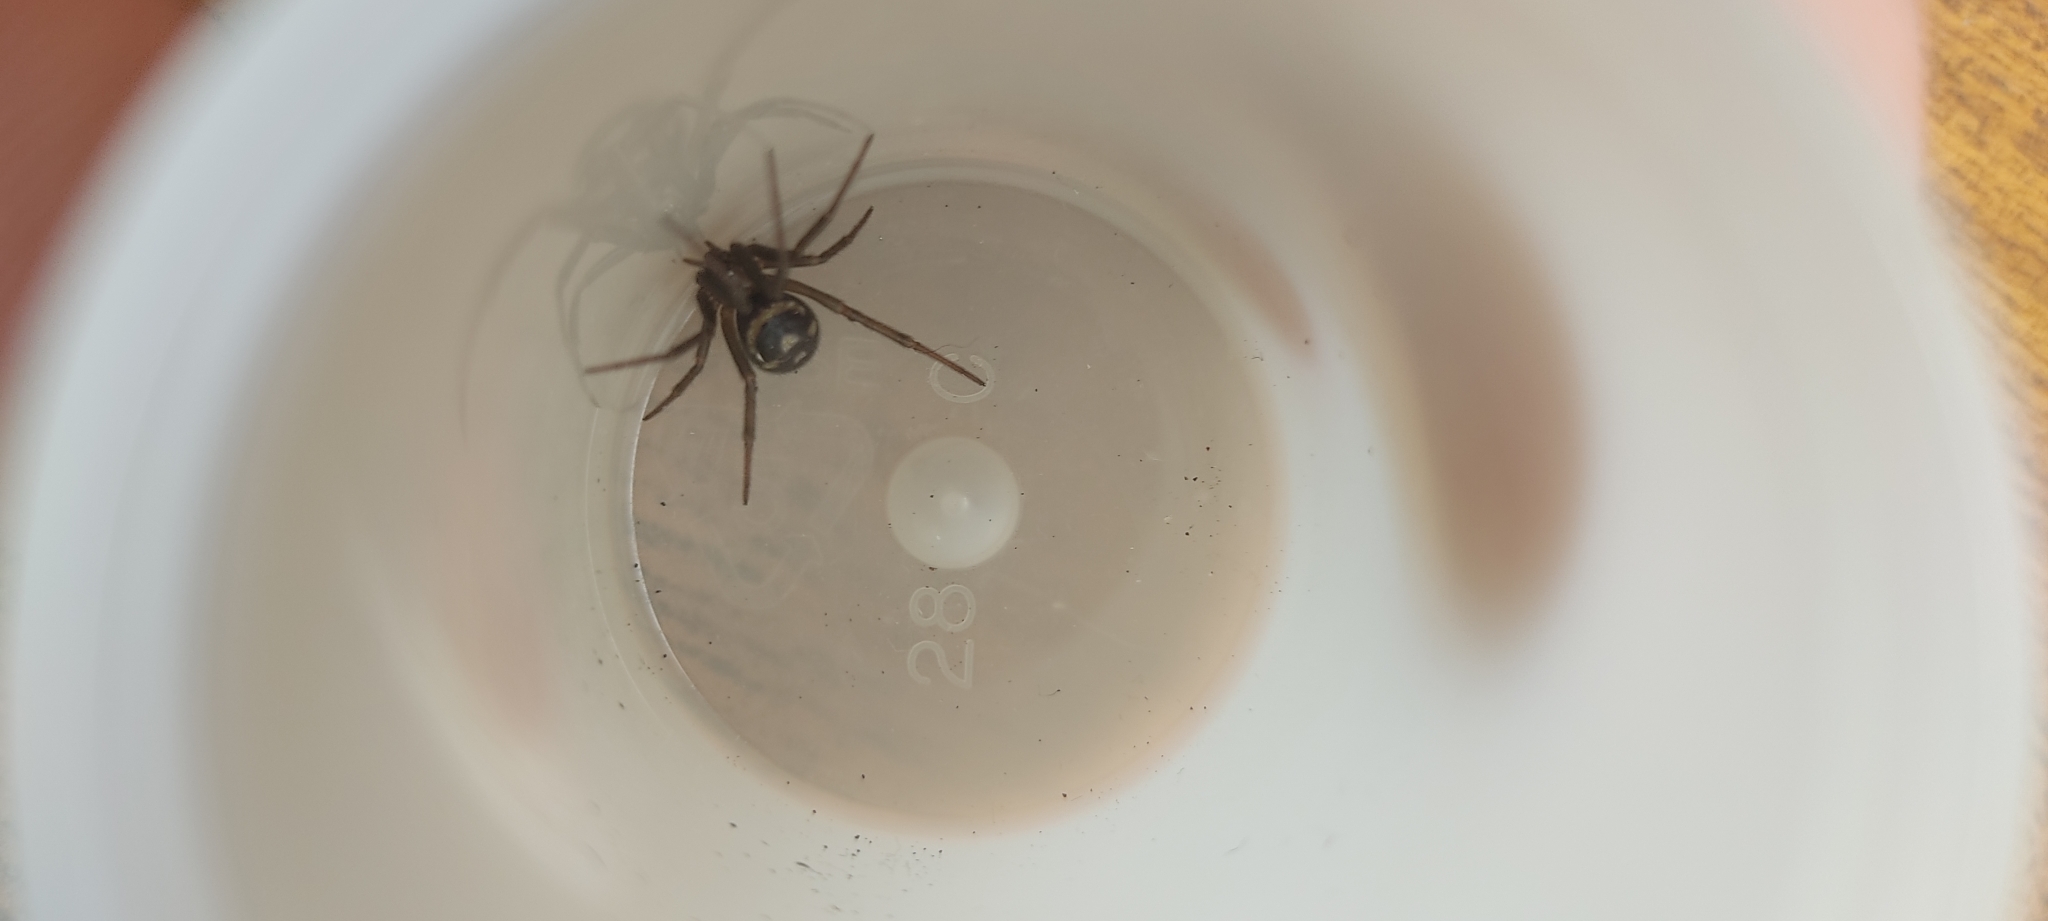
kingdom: Animalia
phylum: Arthropoda
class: Arachnida
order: Araneae
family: Theridiidae
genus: Steatoda
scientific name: Steatoda grossa
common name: False black widow
